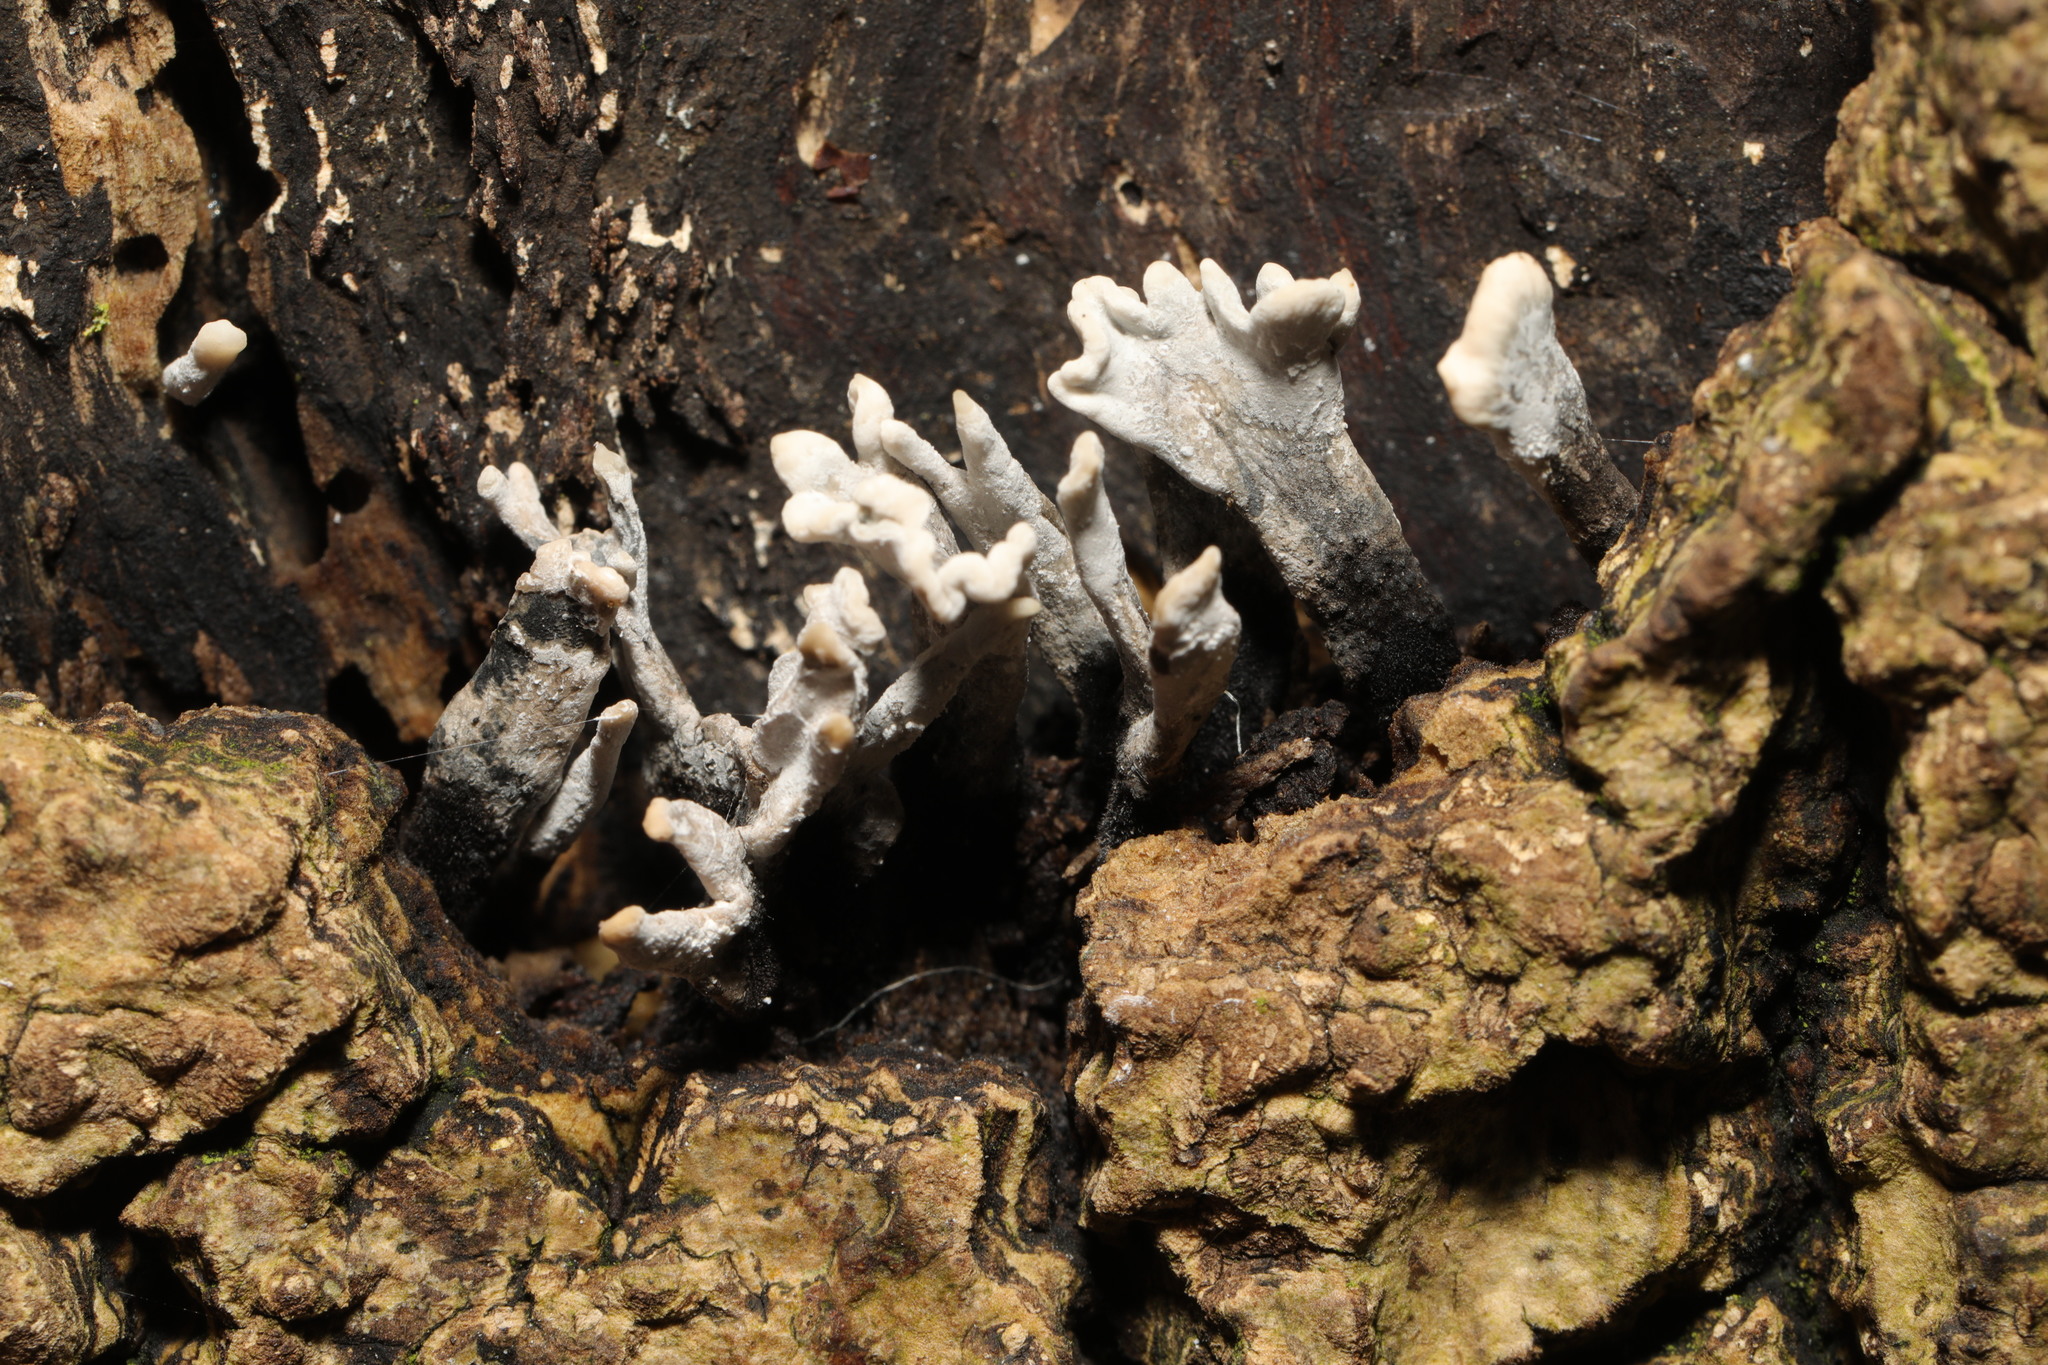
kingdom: Fungi
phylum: Ascomycota
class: Sordariomycetes
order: Xylariales
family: Xylariaceae
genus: Xylaria
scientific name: Xylaria hypoxylon
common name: Candle-snuff fungus
